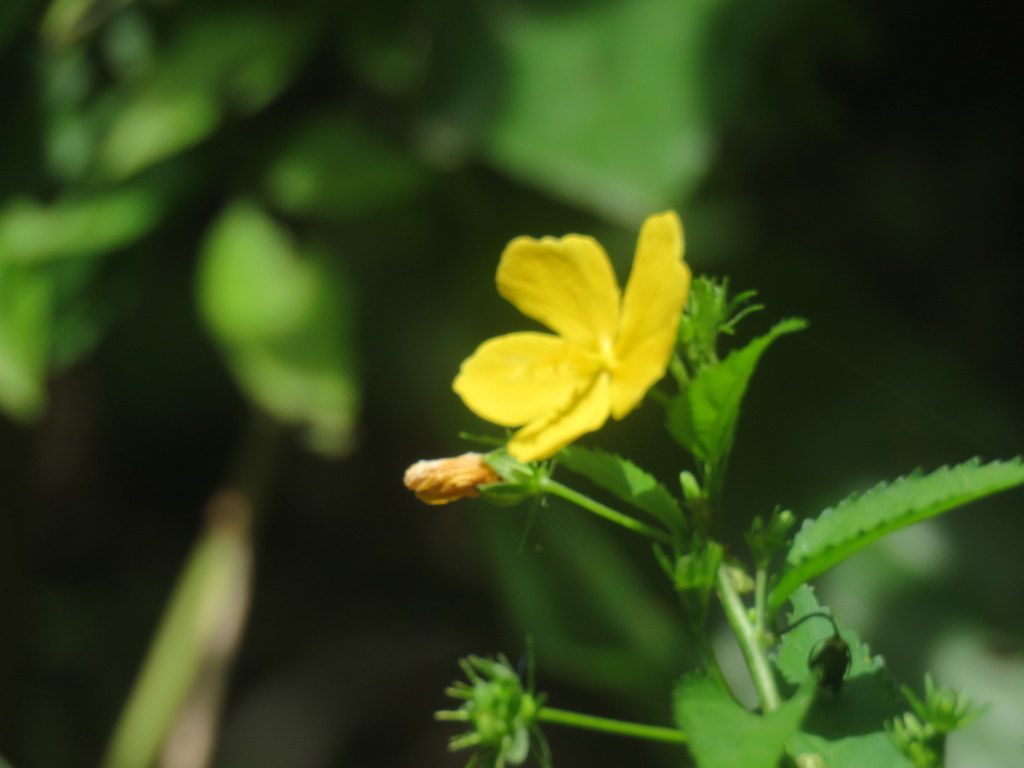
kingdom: Plantae
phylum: Tracheophyta
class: Magnoliopsida
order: Malvales
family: Malvaceae
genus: Pavonia
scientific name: Pavonia sepium
